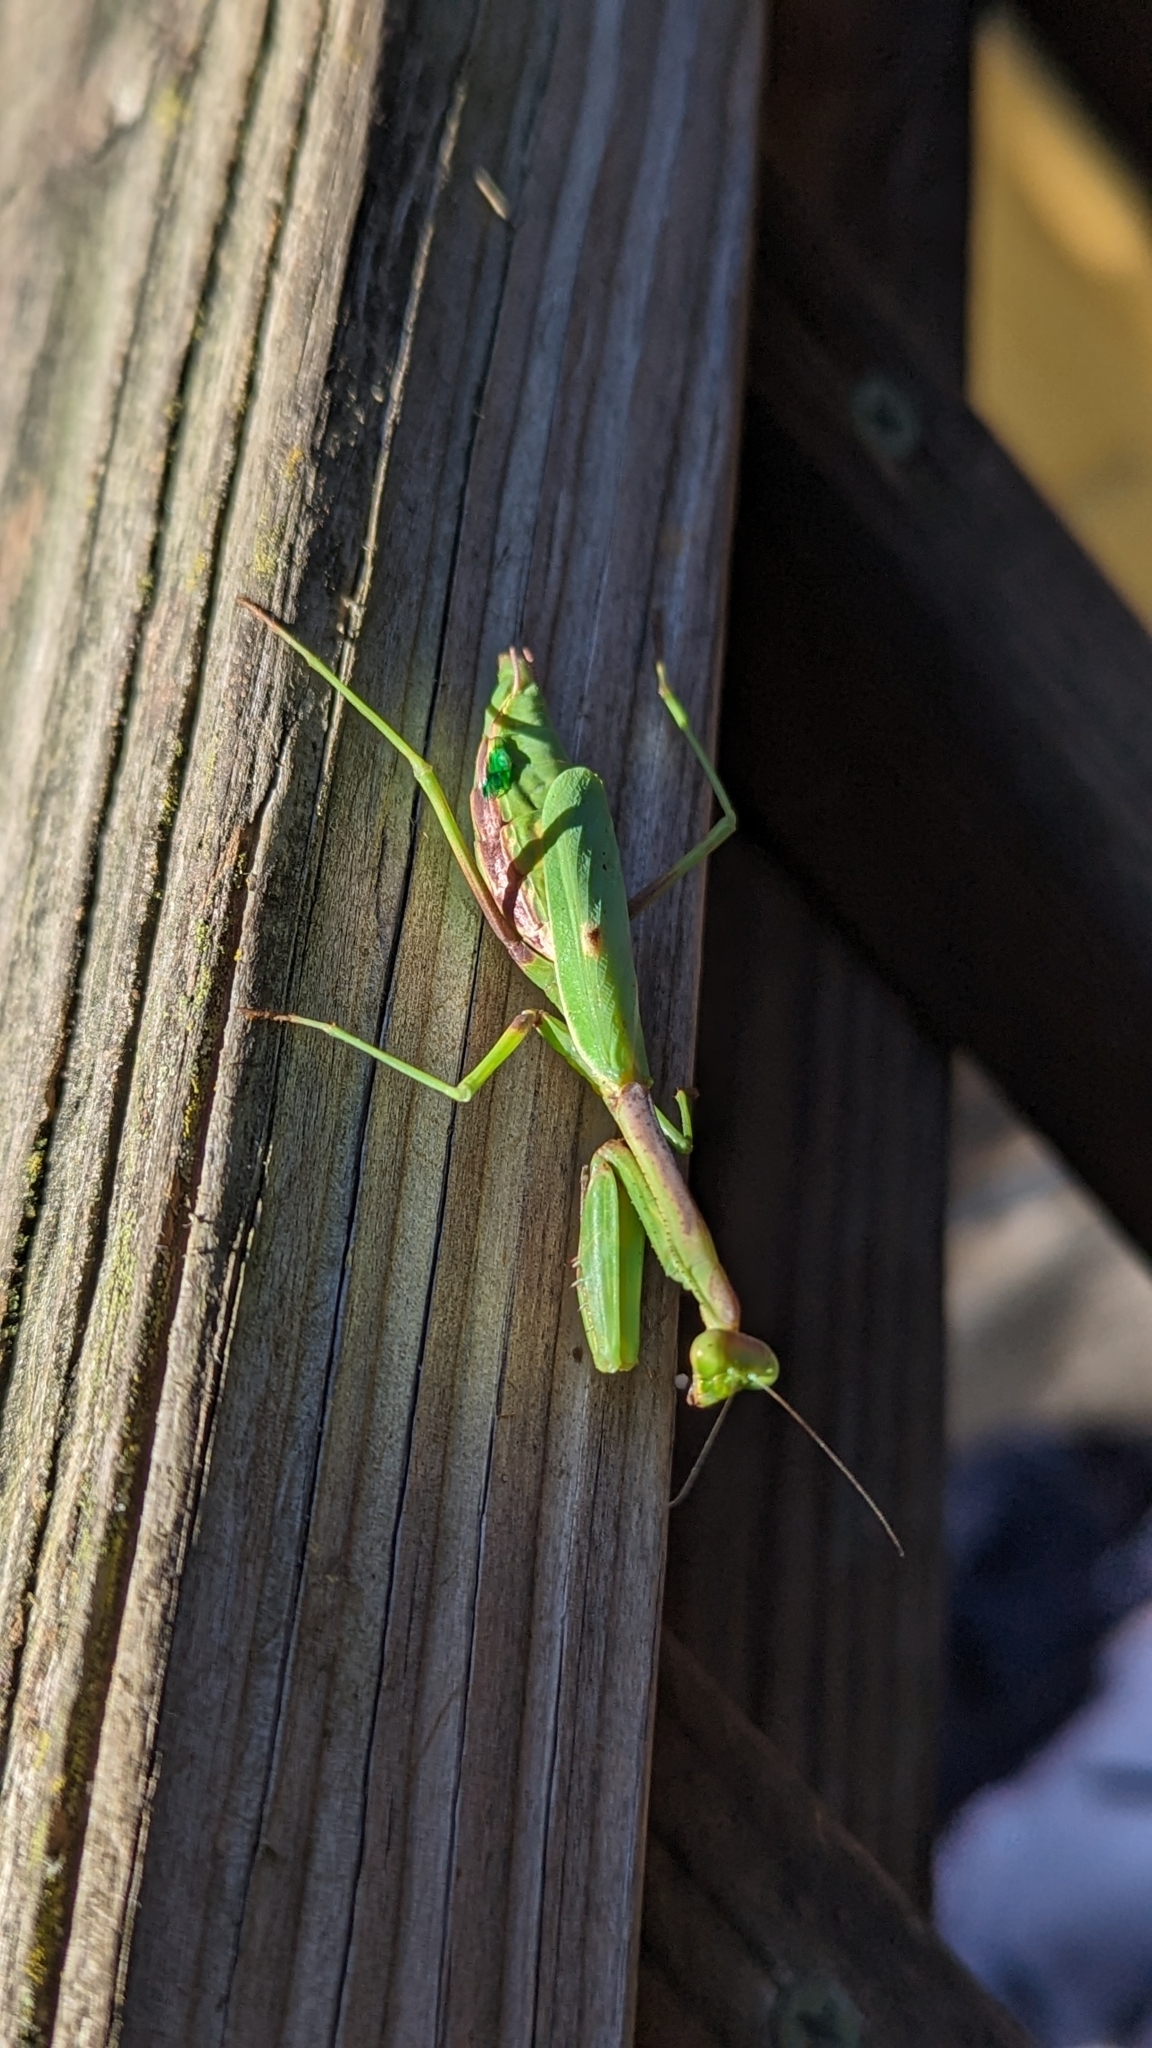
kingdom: Animalia
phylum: Arthropoda
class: Insecta
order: Mantodea
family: Mantidae
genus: Stagmomantis
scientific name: Stagmomantis carolina
